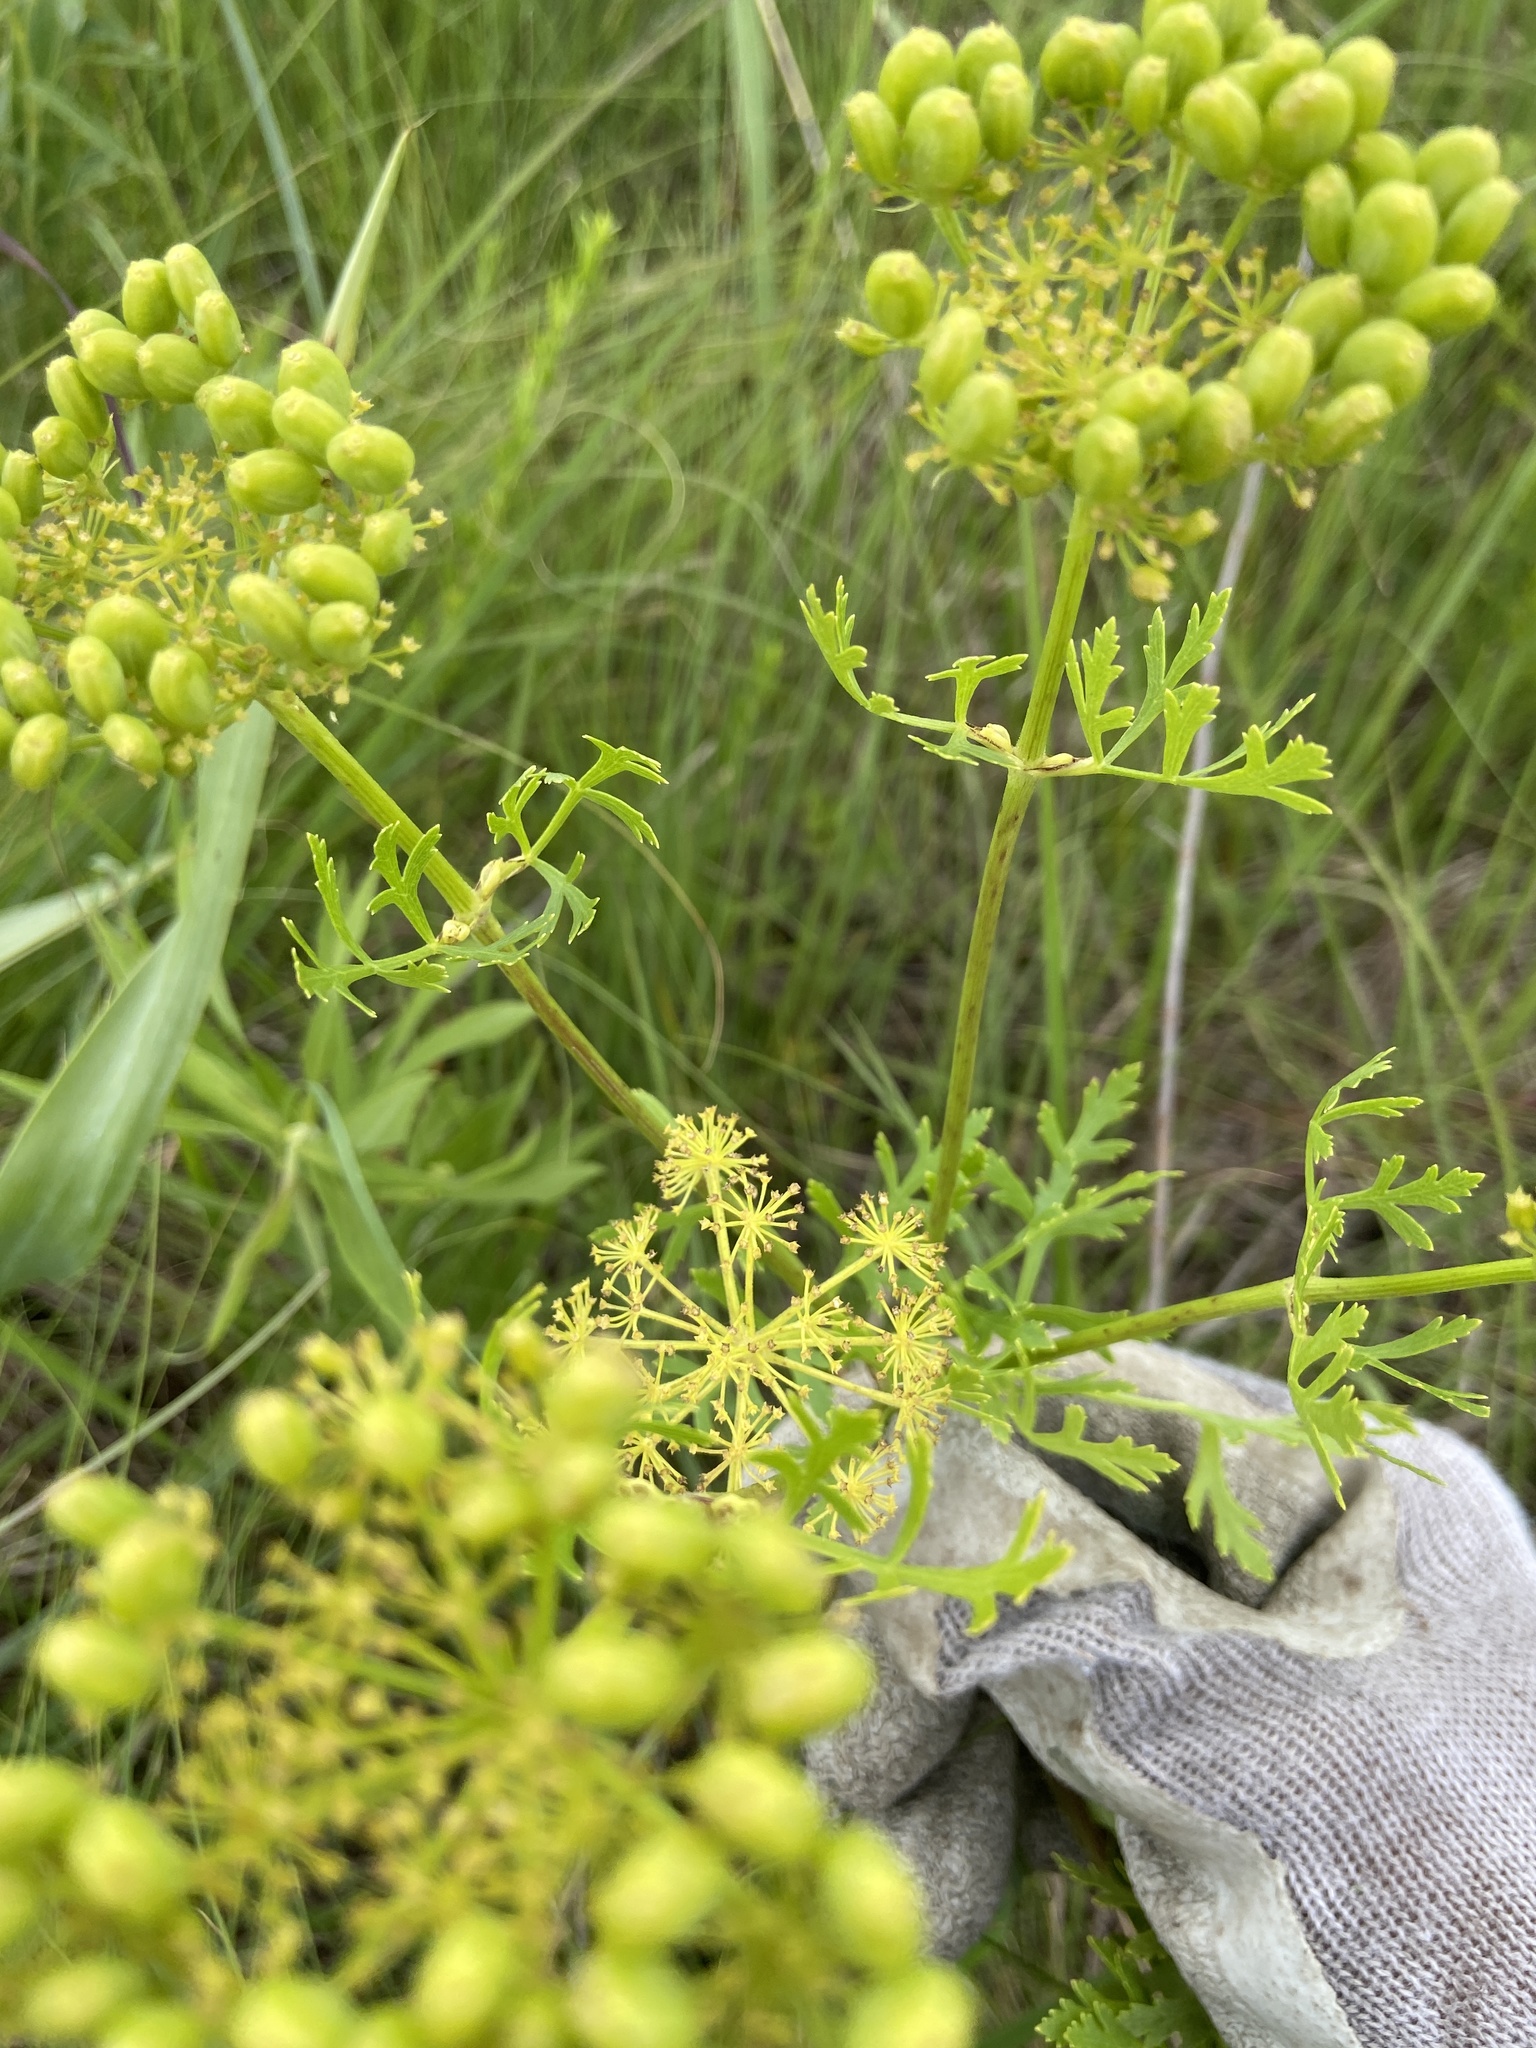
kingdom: Plantae
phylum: Tracheophyta
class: Magnoliopsida
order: Apiales
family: Apiaceae
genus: Polytaenia
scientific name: Polytaenia nuttallii
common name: Prairie-parsley
